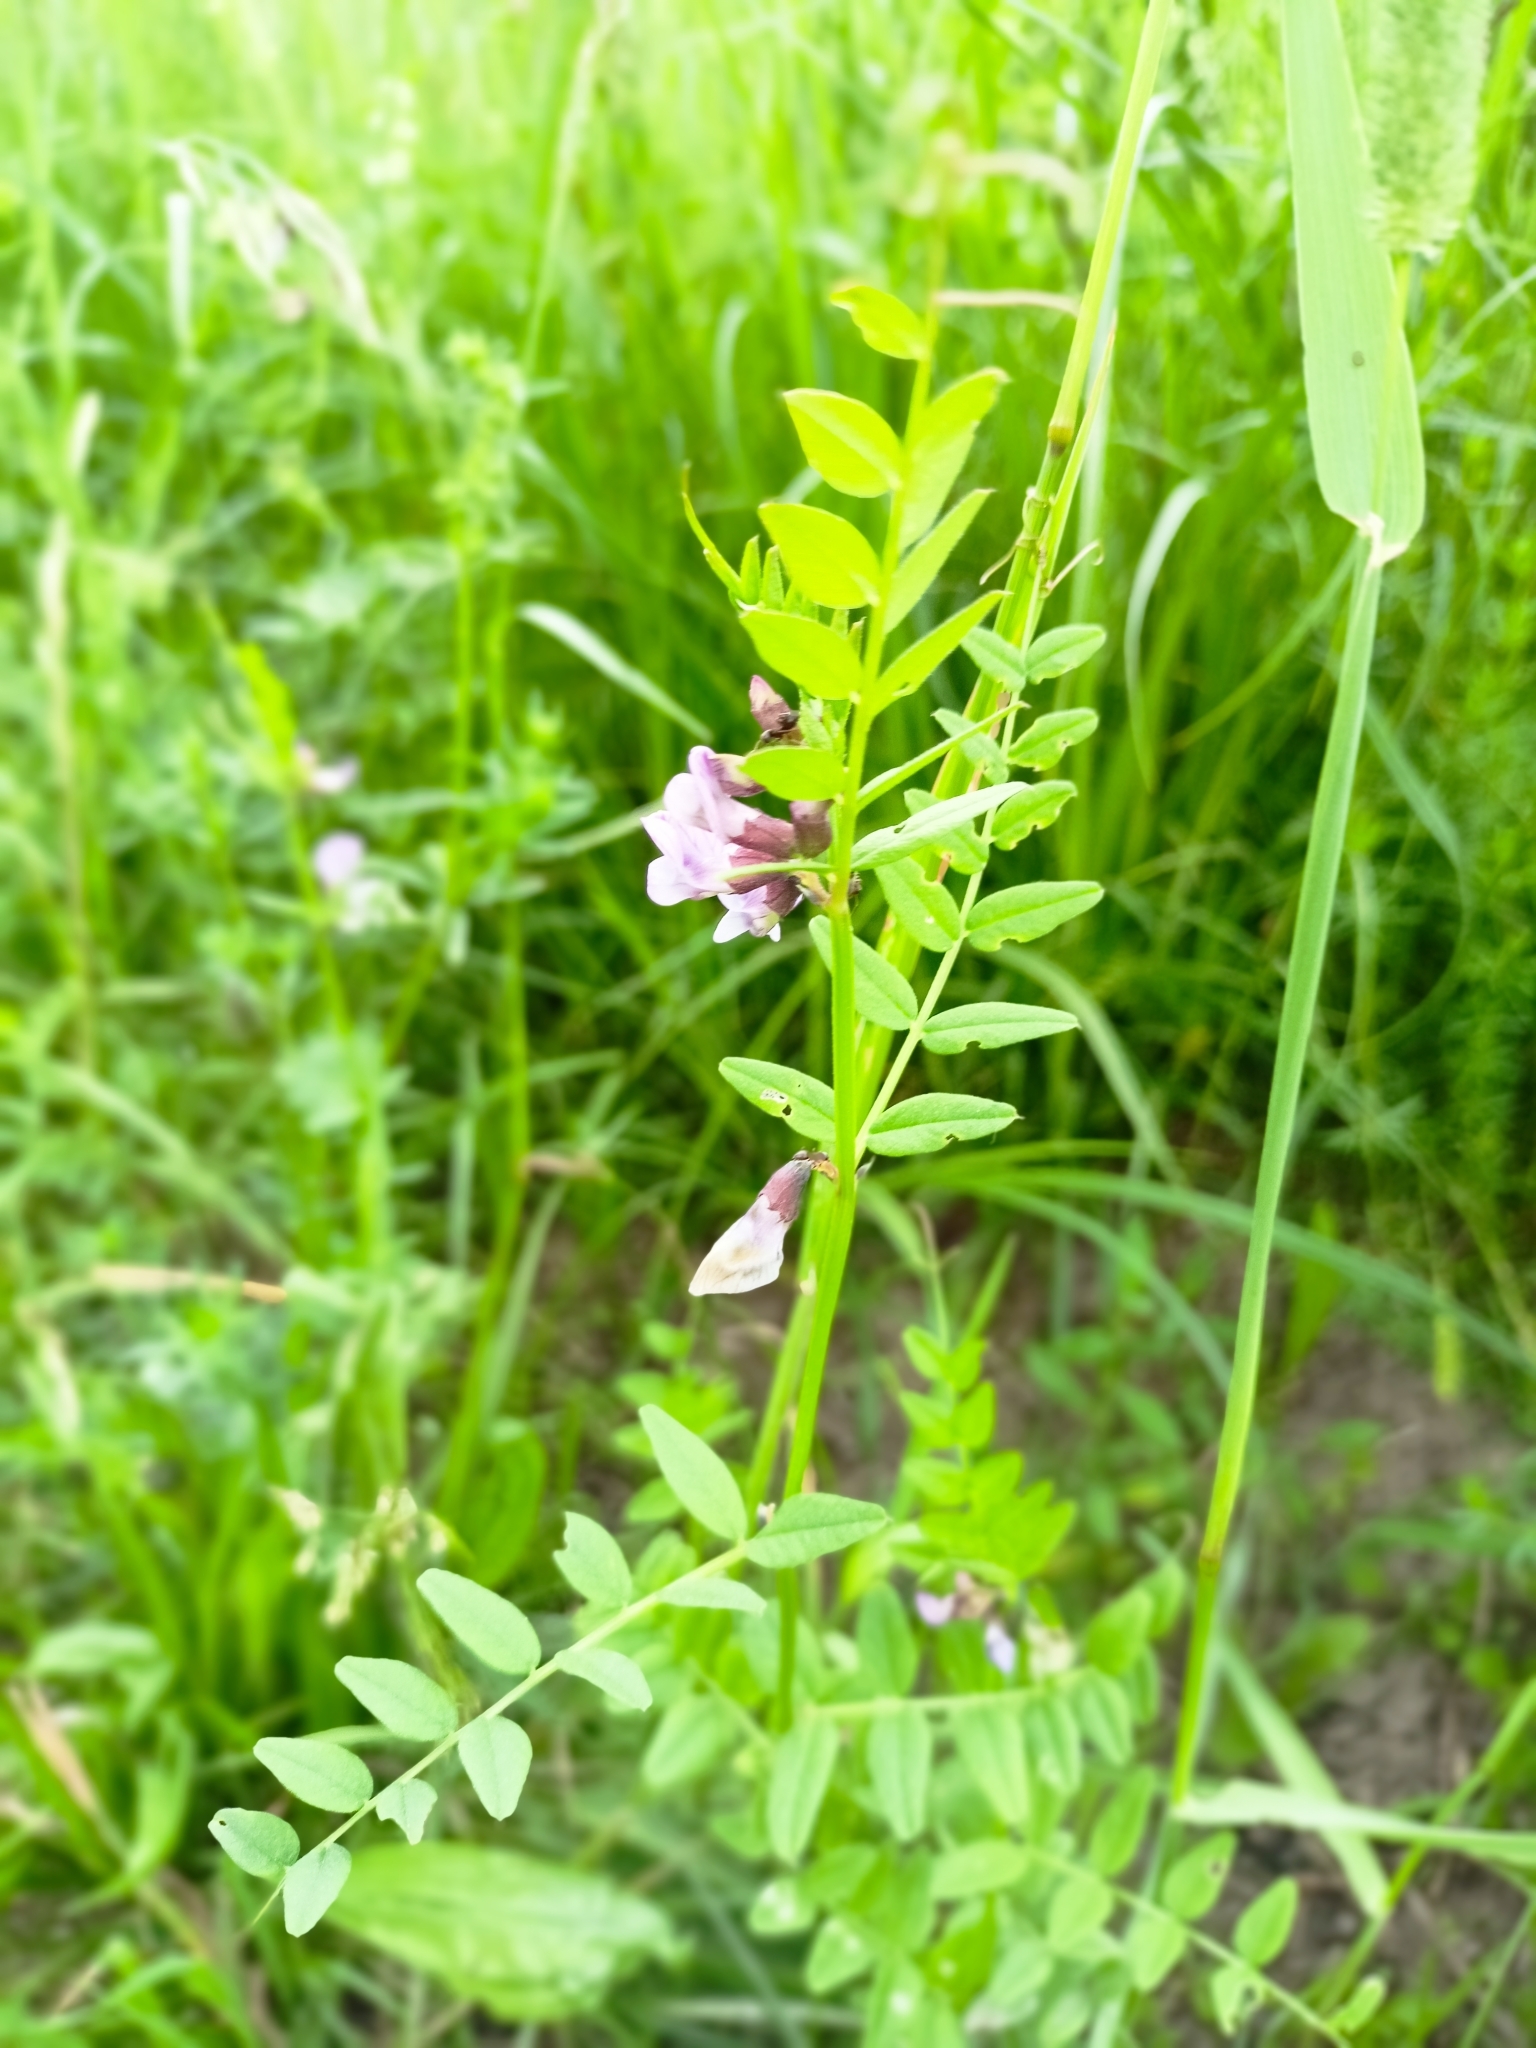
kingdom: Plantae
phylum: Tracheophyta
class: Magnoliopsida
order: Fabales
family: Fabaceae
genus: Vicia
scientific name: Vicia sepium
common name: Bush vetch
